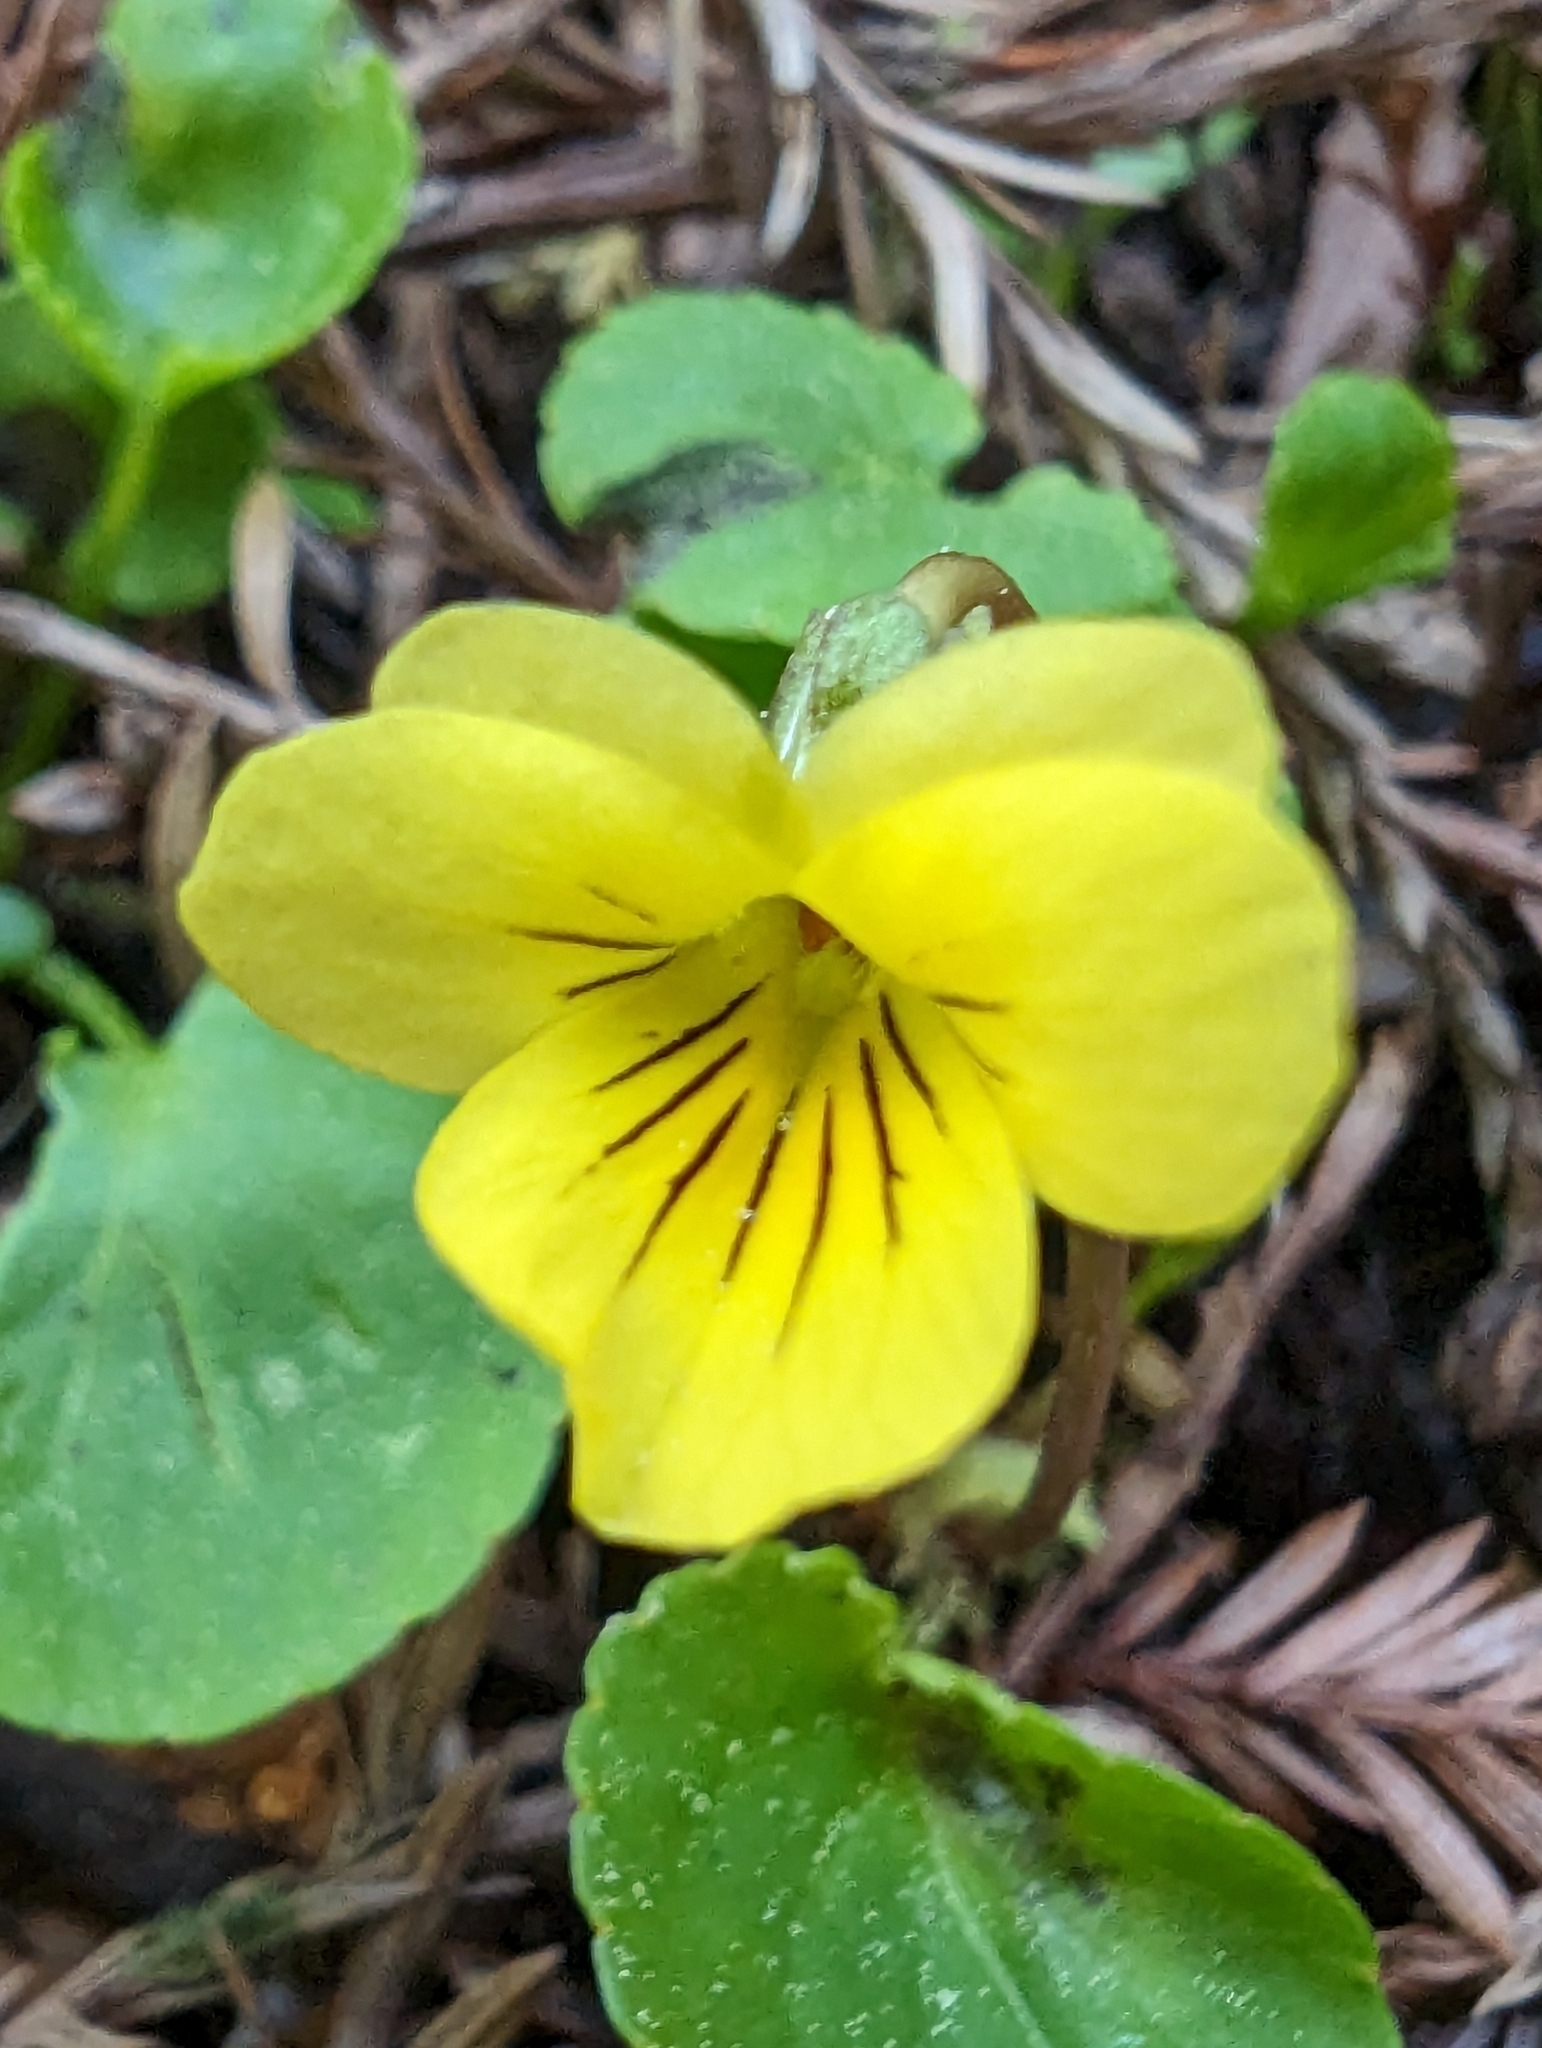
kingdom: Plantae
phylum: Tracheophyta
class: Magnoliopsida
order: Malpighiales
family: Violaceae
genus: Viola
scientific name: Viola sempervirens
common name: Evergreen violet
